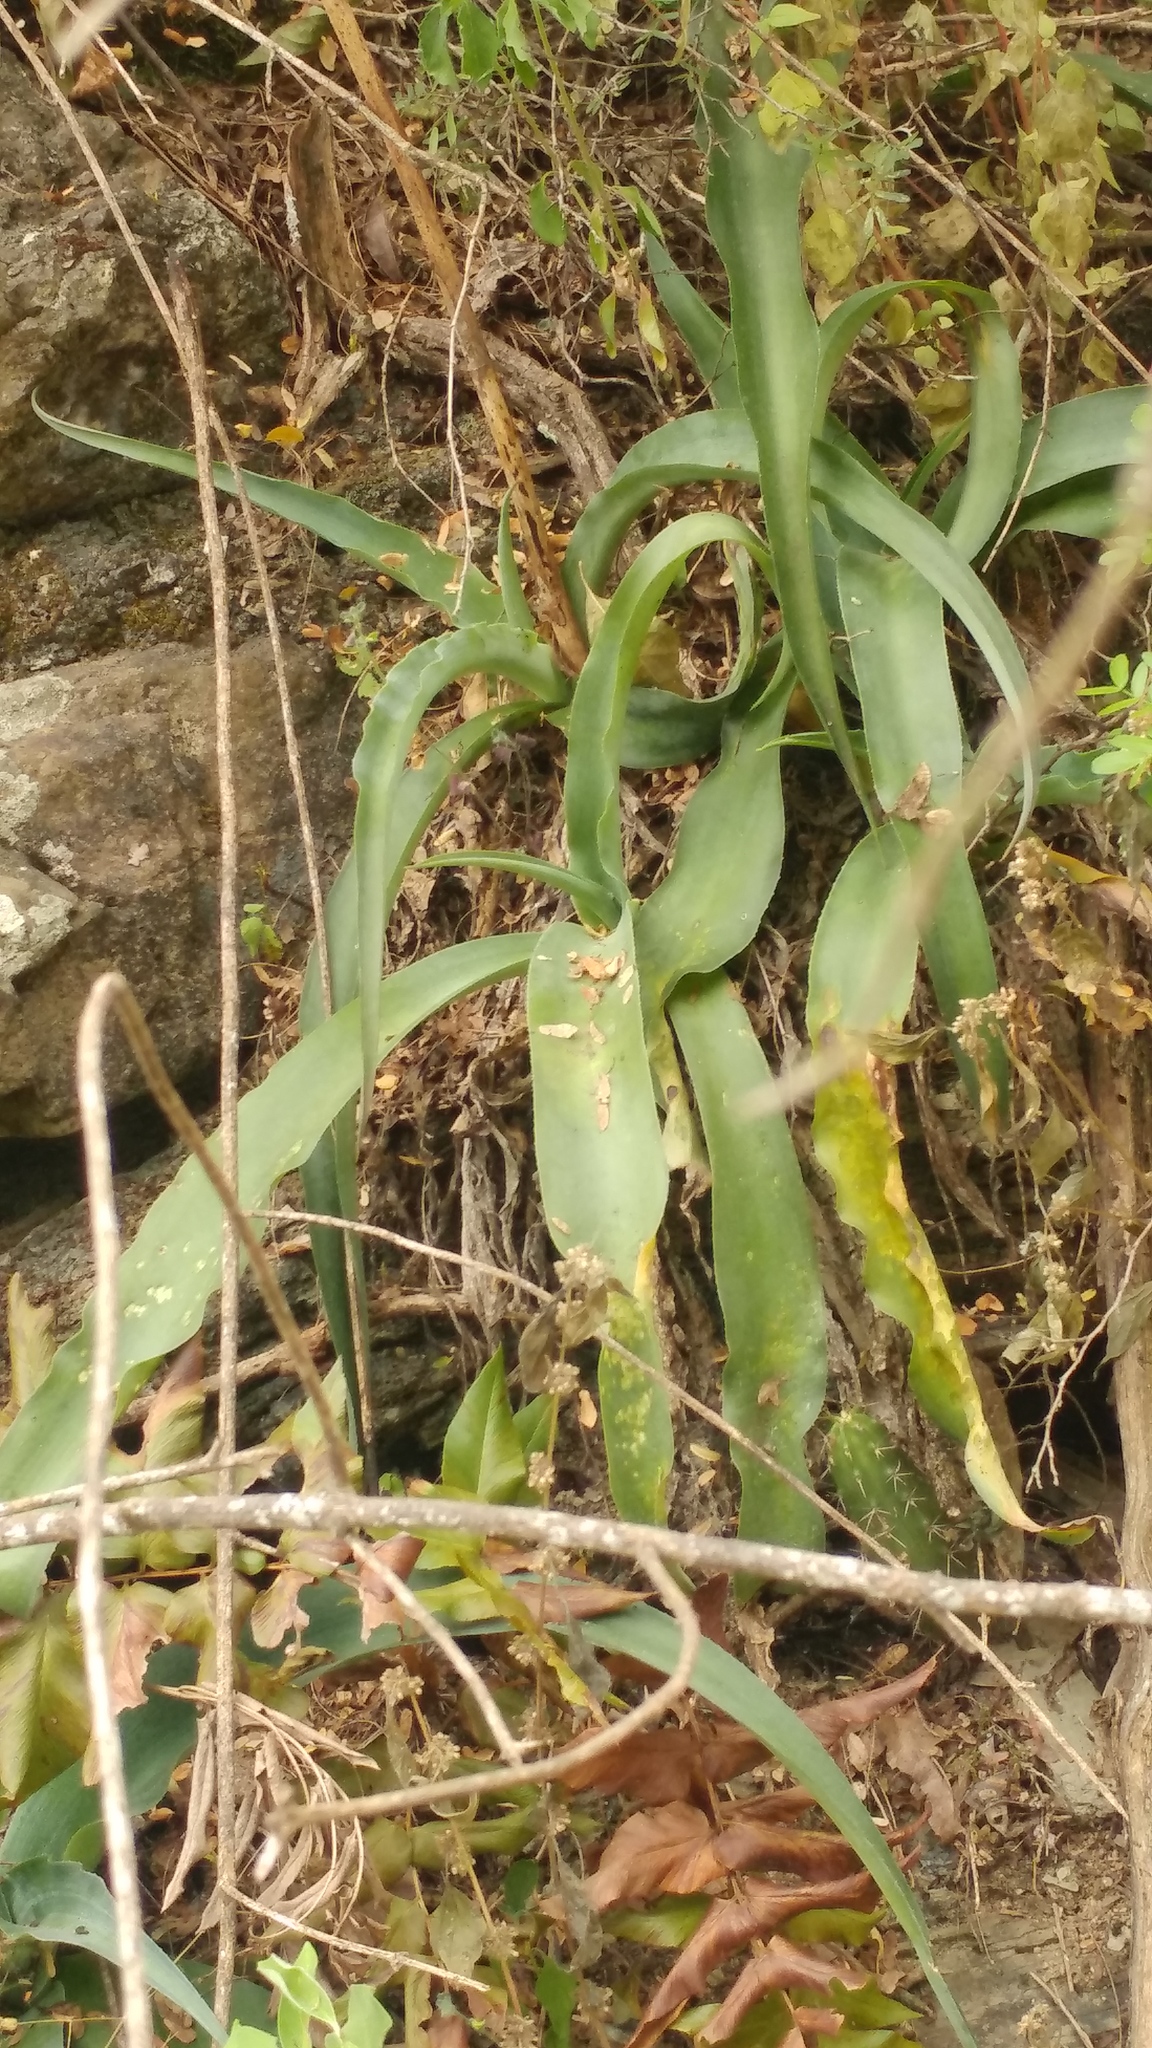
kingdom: Plantae
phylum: Tracheophyta
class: Liliopsida
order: Asparagales
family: Asparagaceae
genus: Agave
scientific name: Agave virginica
